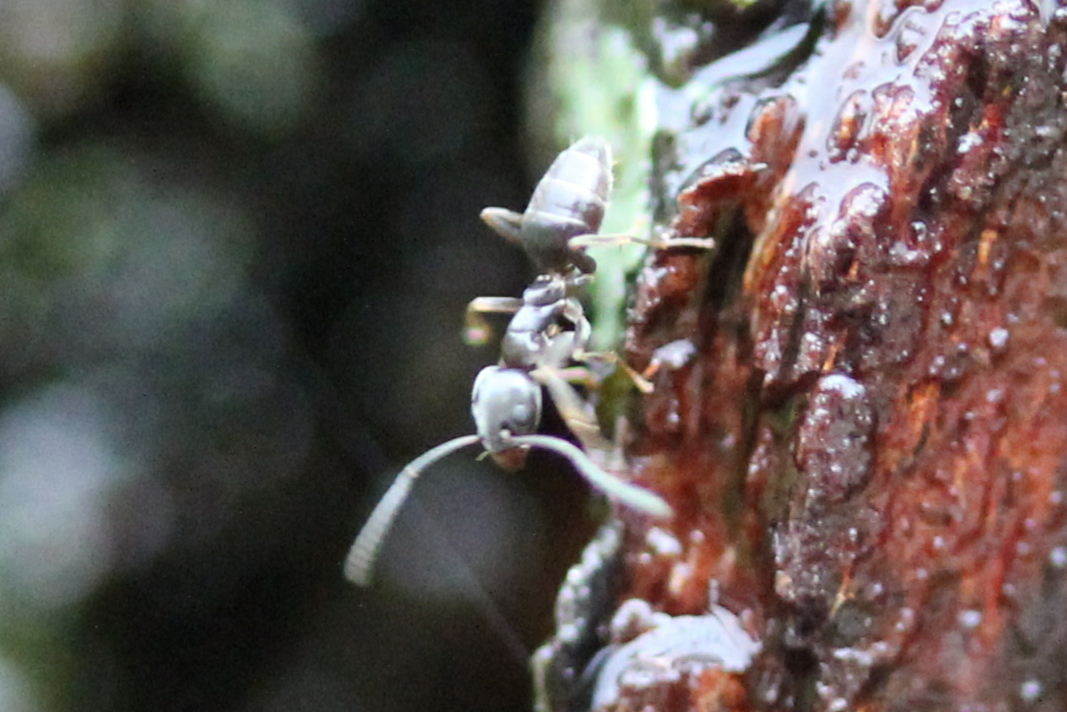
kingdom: Animalia
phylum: Arthropoda
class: Insecta
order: Hymenoptera
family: Formicidae
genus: Tapinoma
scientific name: Tapinoma sessile
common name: Odorous house ant
